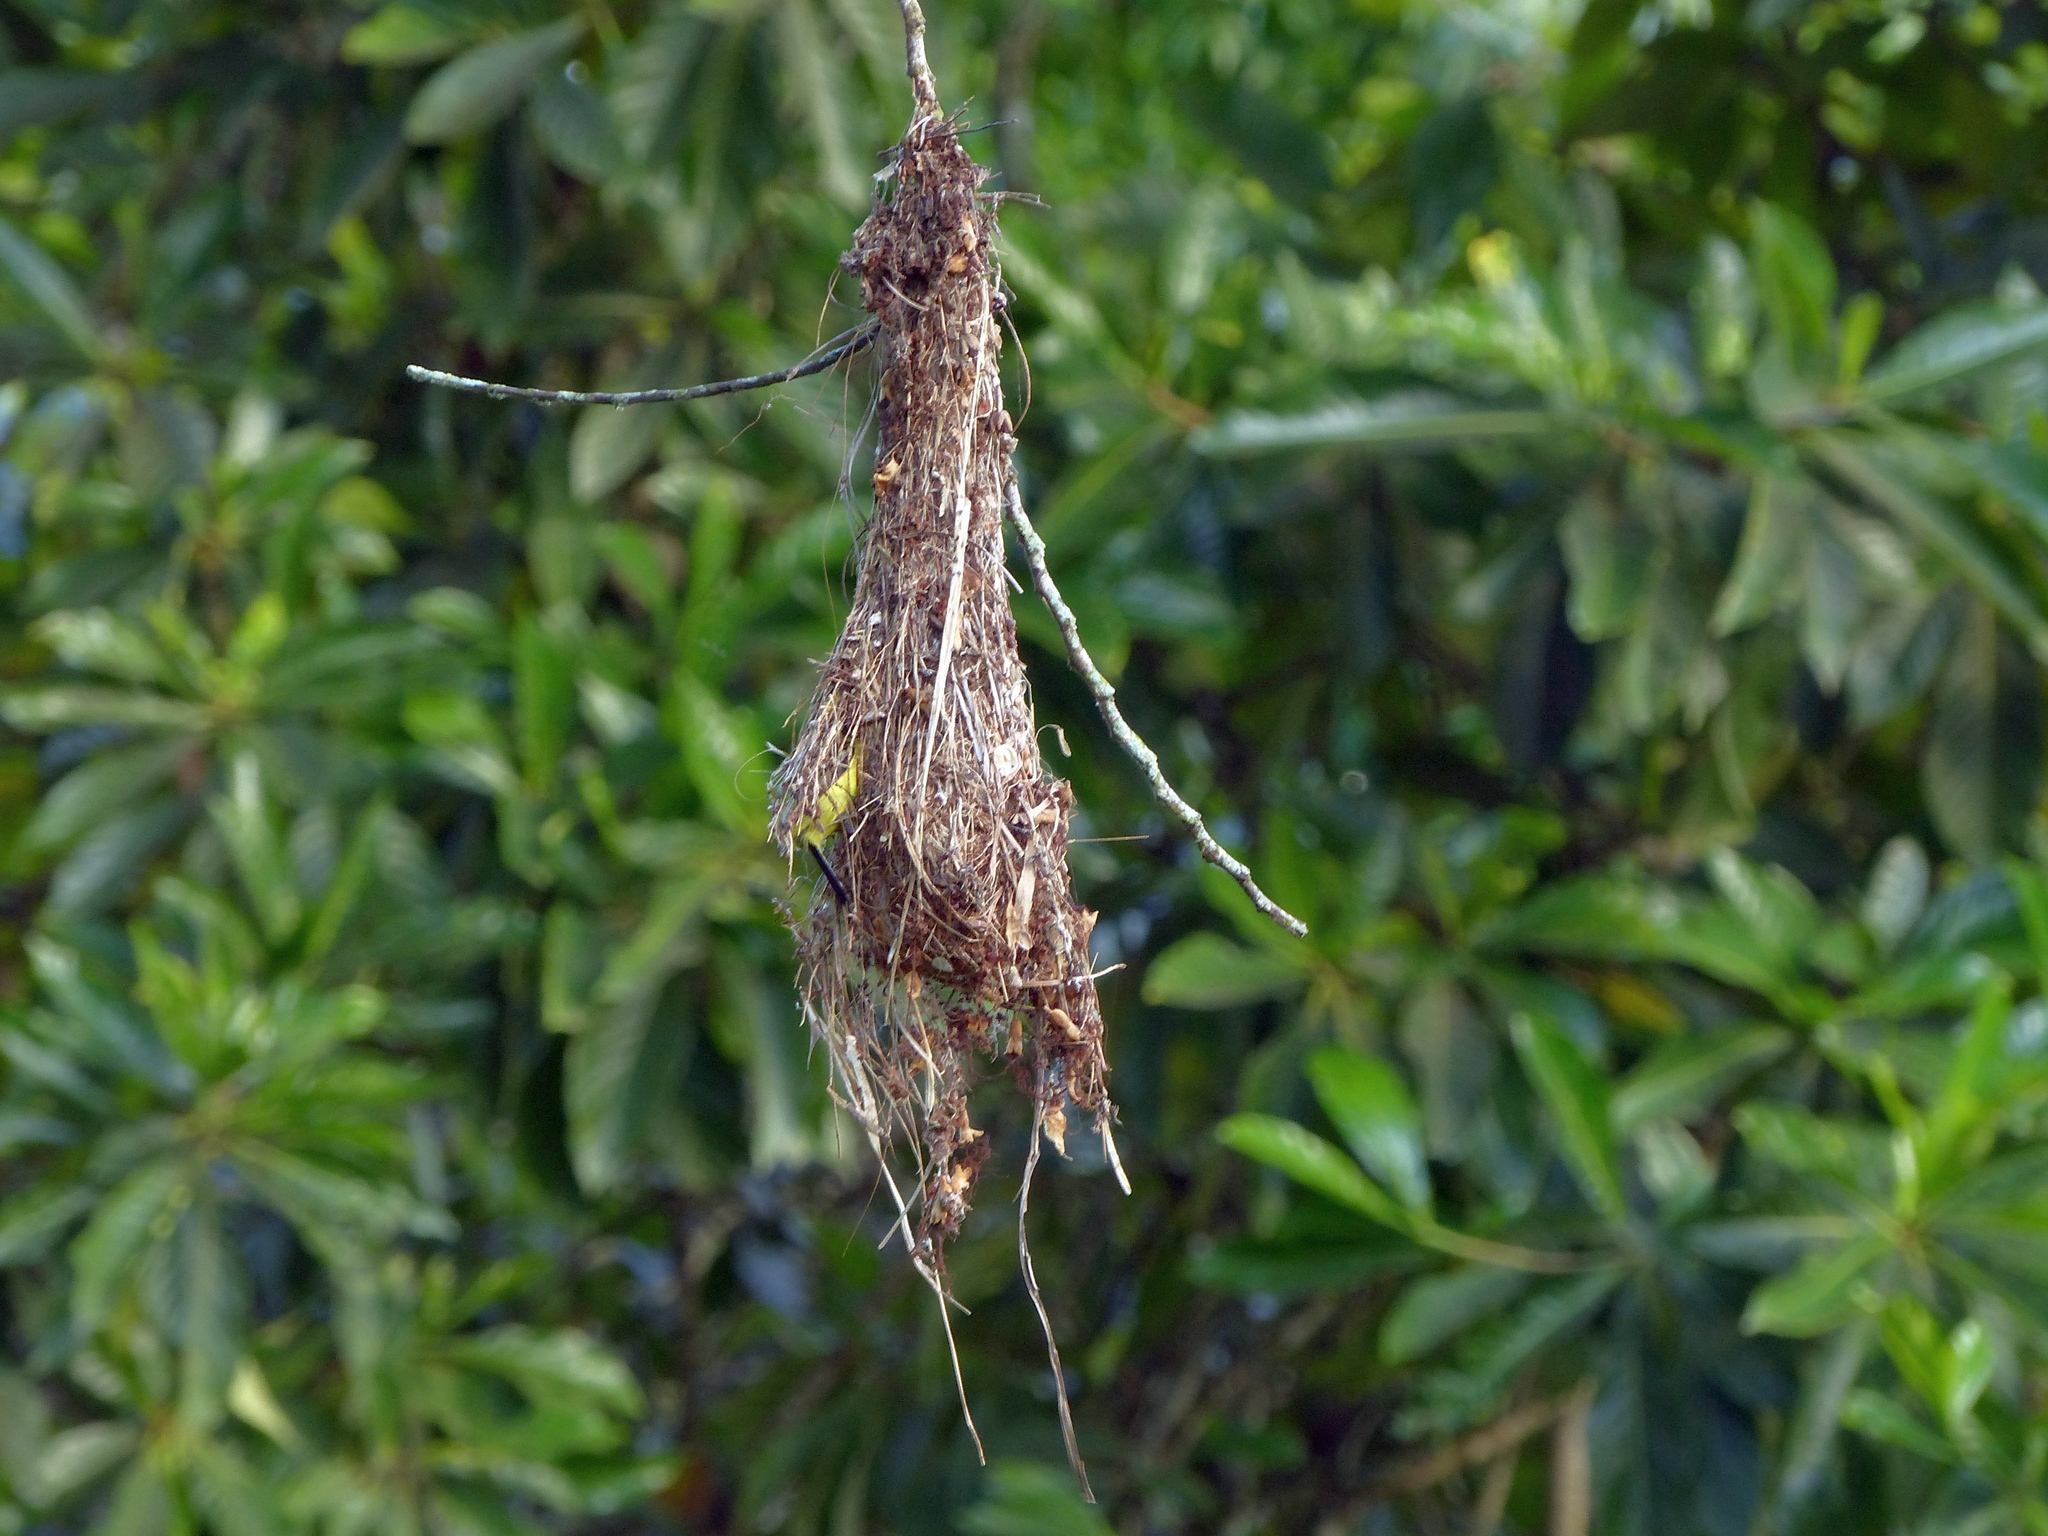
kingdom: Animalia
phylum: Chordata
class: Aves
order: Passeriformes
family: Tyrannidae
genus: Todirostrum
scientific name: Todirostrum cinereum
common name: Common tody-flycatcher
